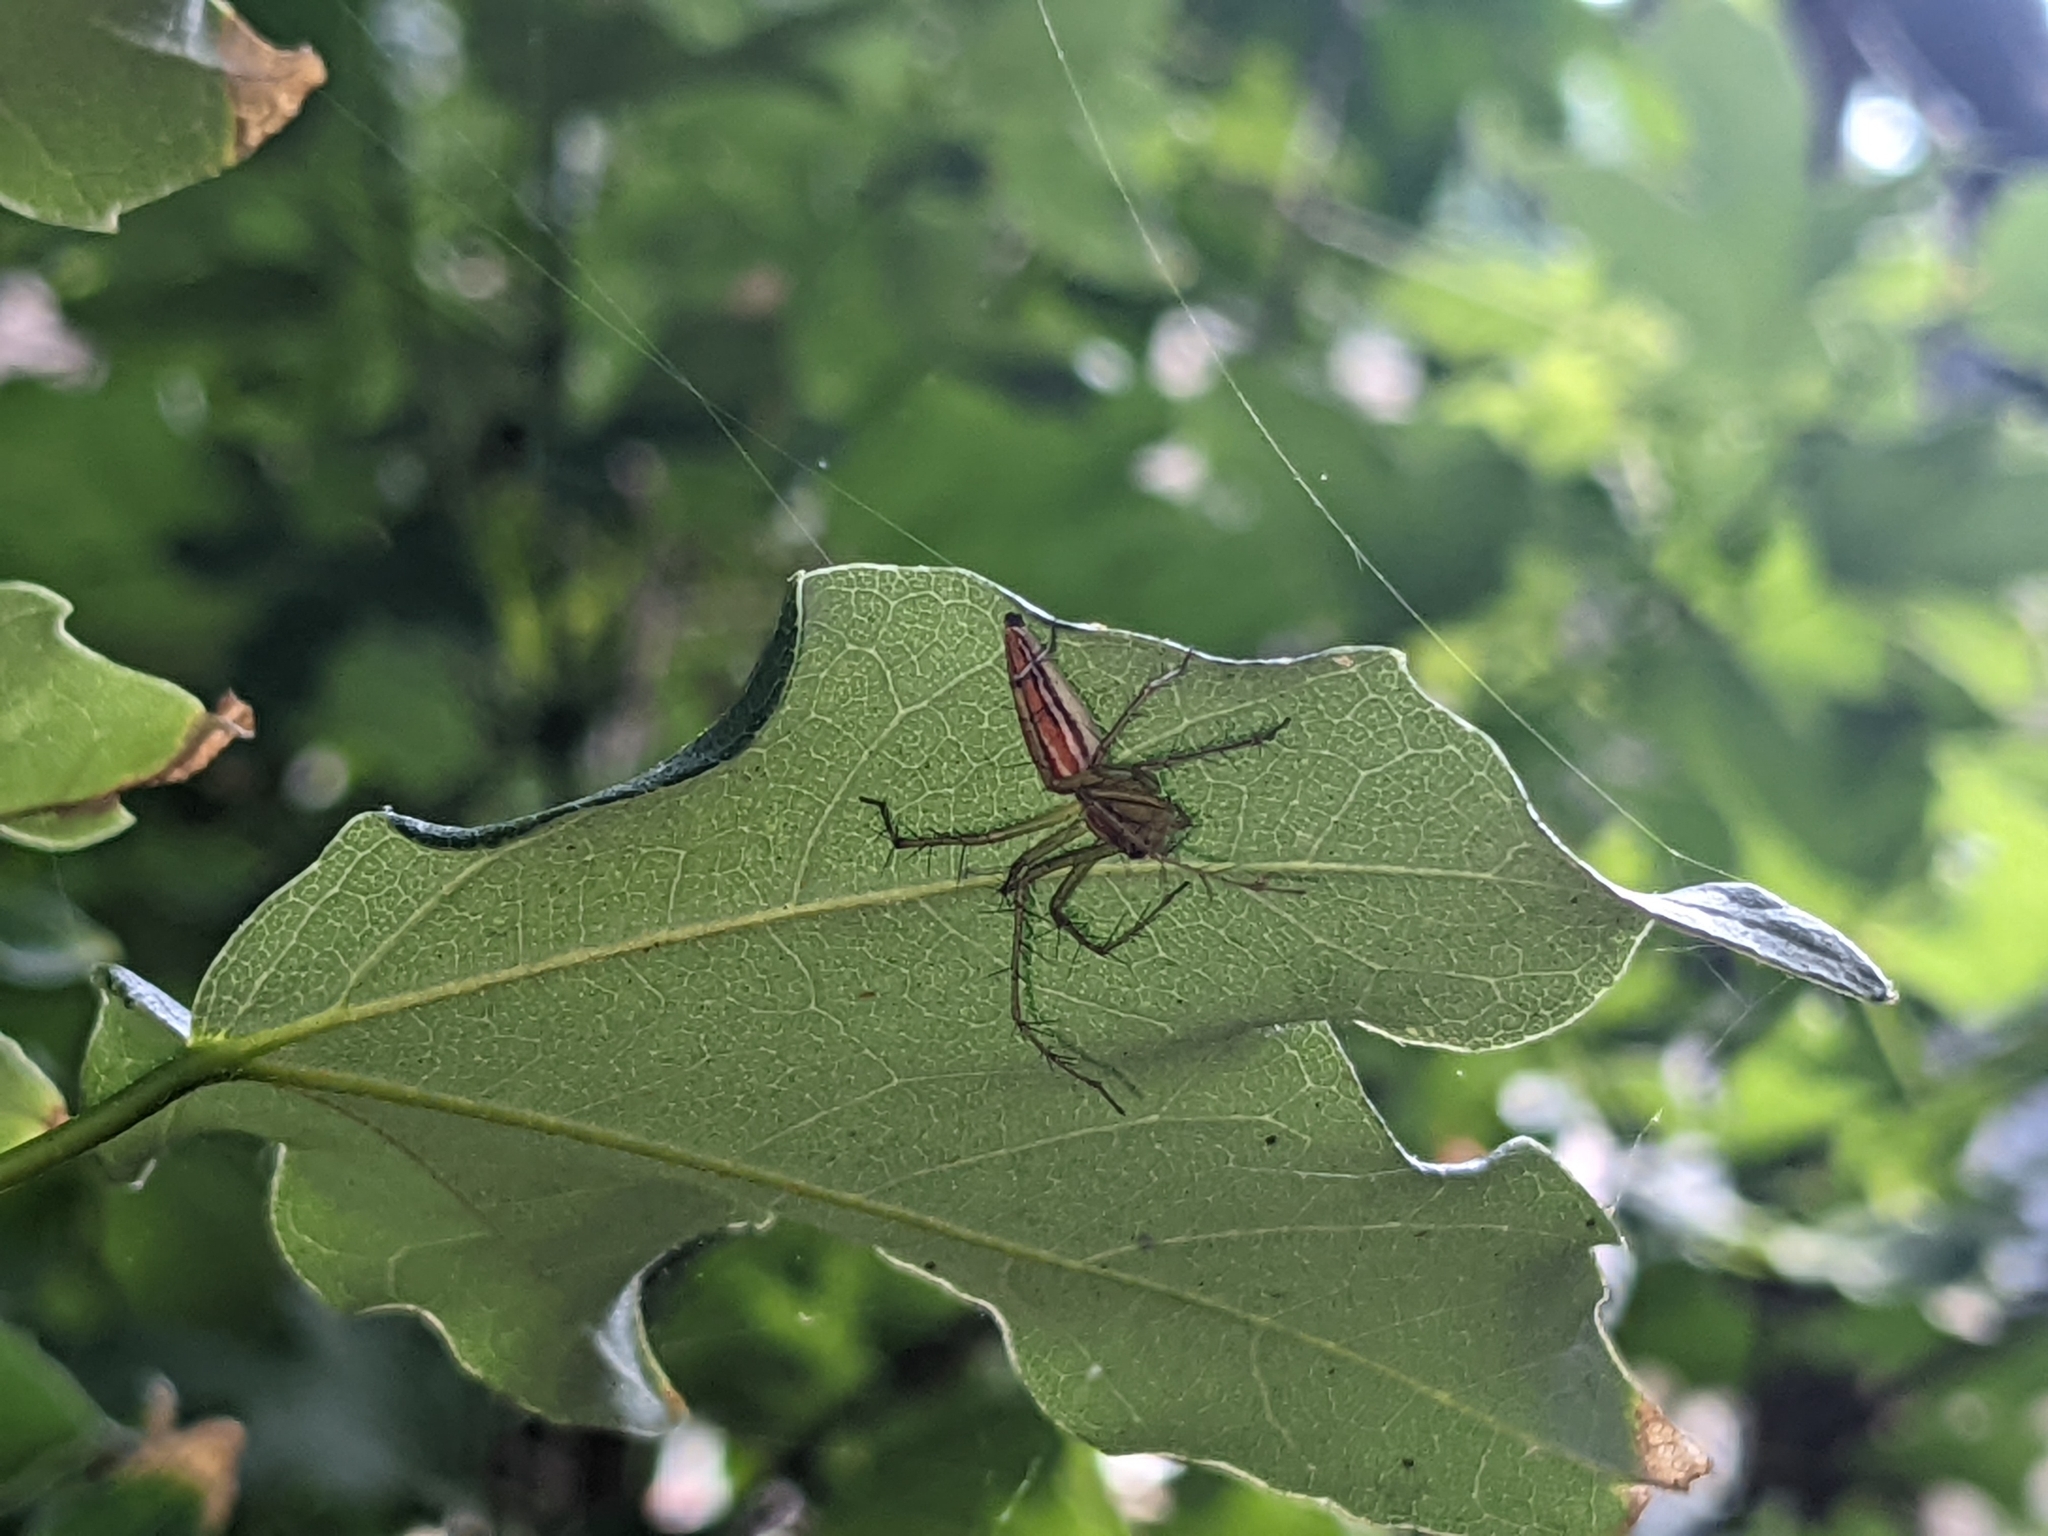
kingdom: Animalia
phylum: Arthropoda
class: Arachnida
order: Araneae
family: Oxyopidae
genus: Oxyopes
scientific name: Oxyopes macilentus
